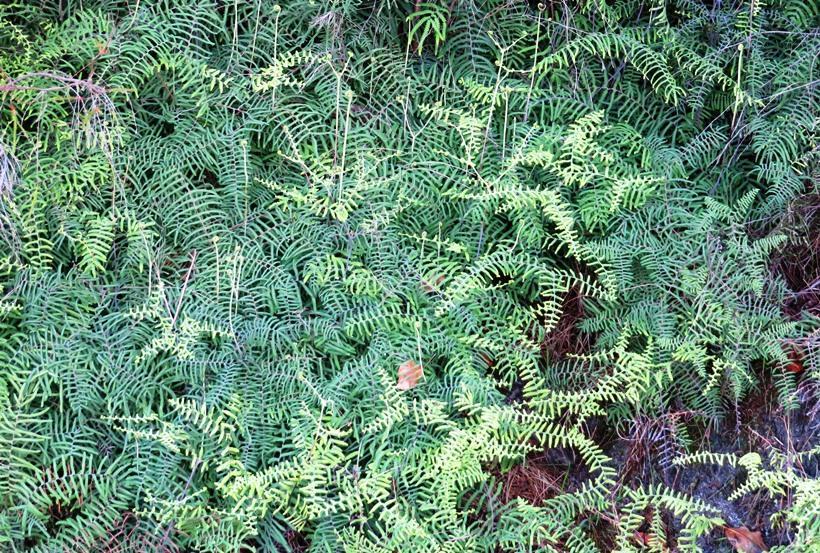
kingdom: Plantae
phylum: Tracheophyta
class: Polypodiopsida
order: Gleicheniales
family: Gleicheniaceae
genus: Gleichenia
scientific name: Gleichenia polypodioides
